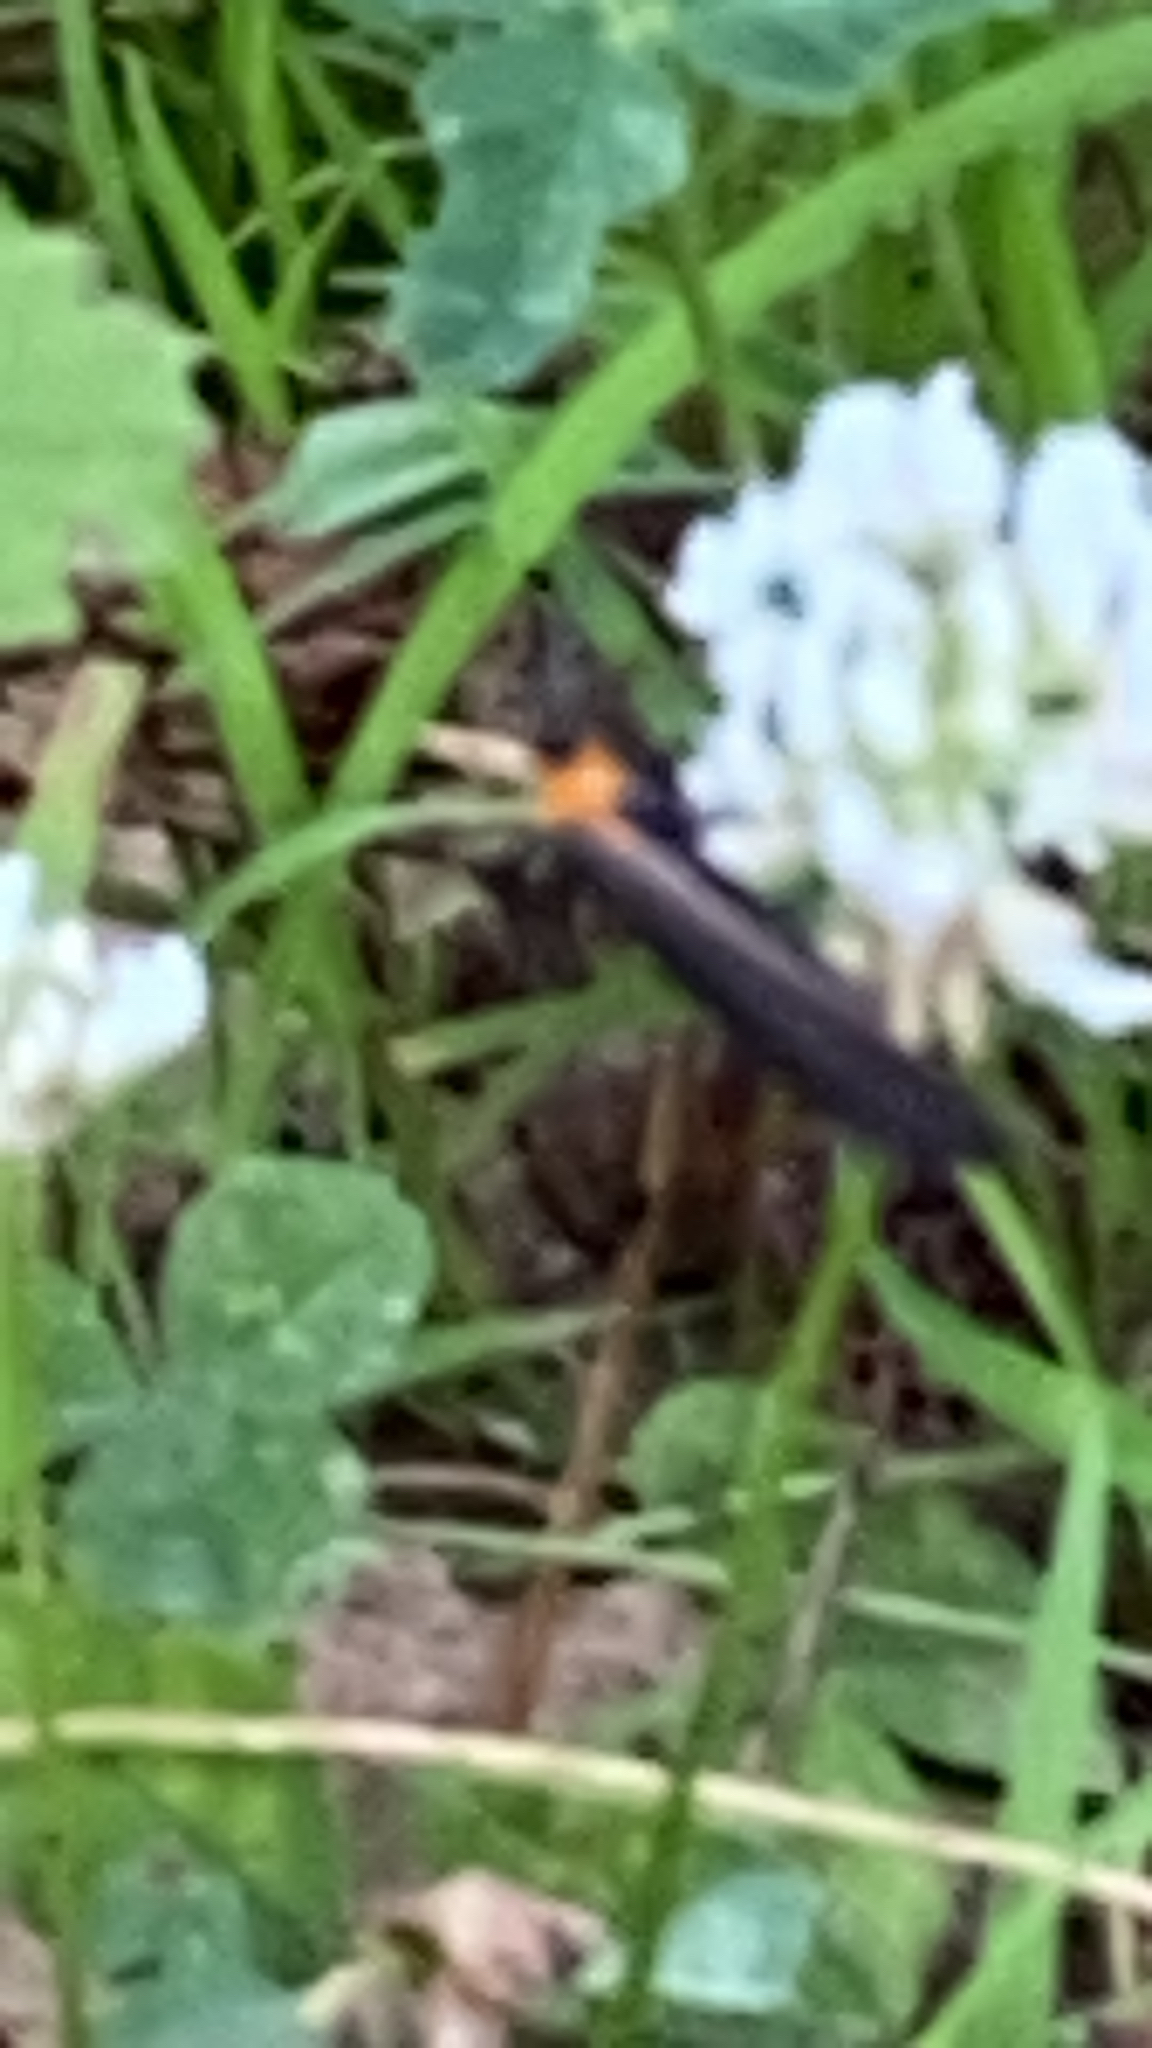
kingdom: Animalia
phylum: Arthropoda
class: Insecta
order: Lepidoptera
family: Erebidae
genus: Cisseps
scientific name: Cisseps fulvicollis
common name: Yellow-collared scape moth
